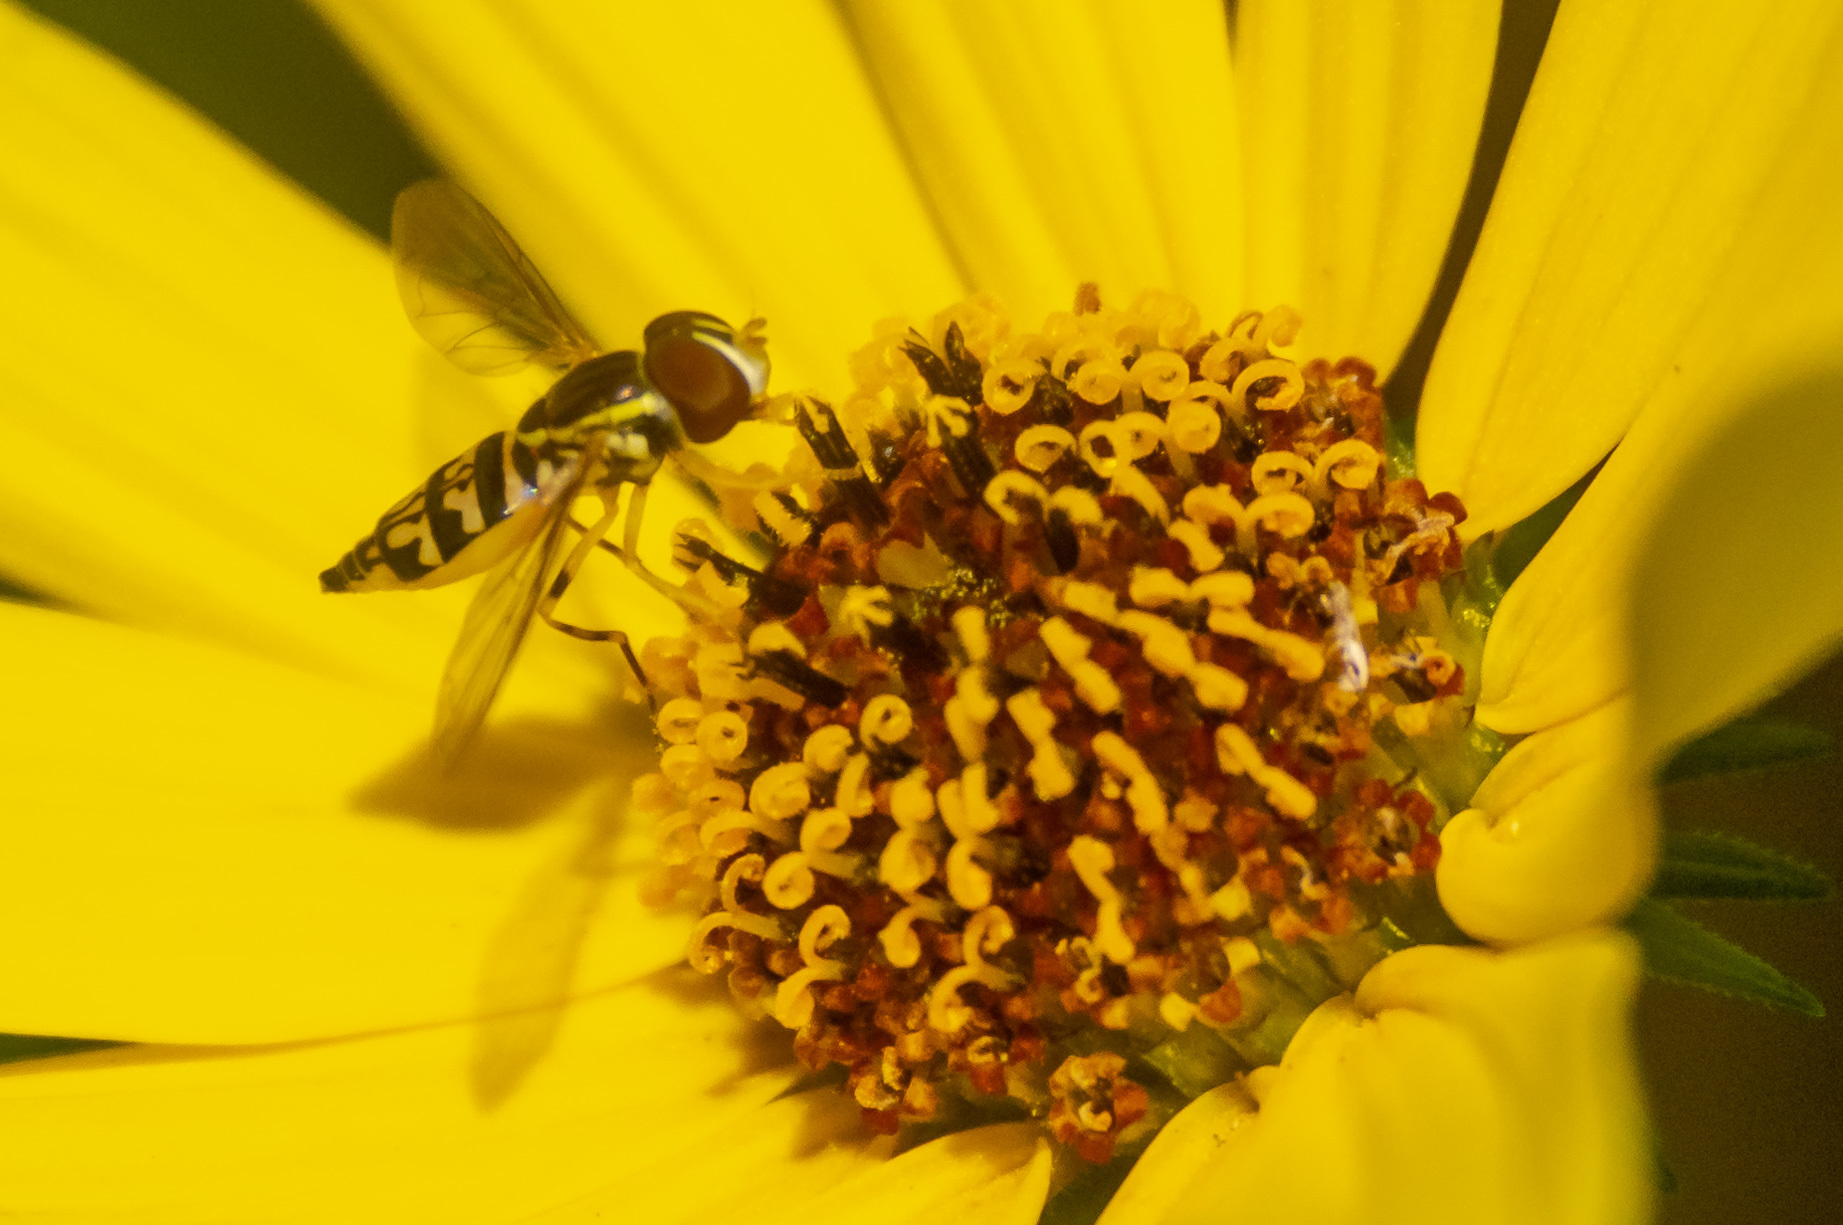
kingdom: Animalia
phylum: Arthropoda
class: Insecta
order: Diptera
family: Syrphidae
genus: Toxomerus
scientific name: Toxomerus geminatus
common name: Eastern calligrapher
